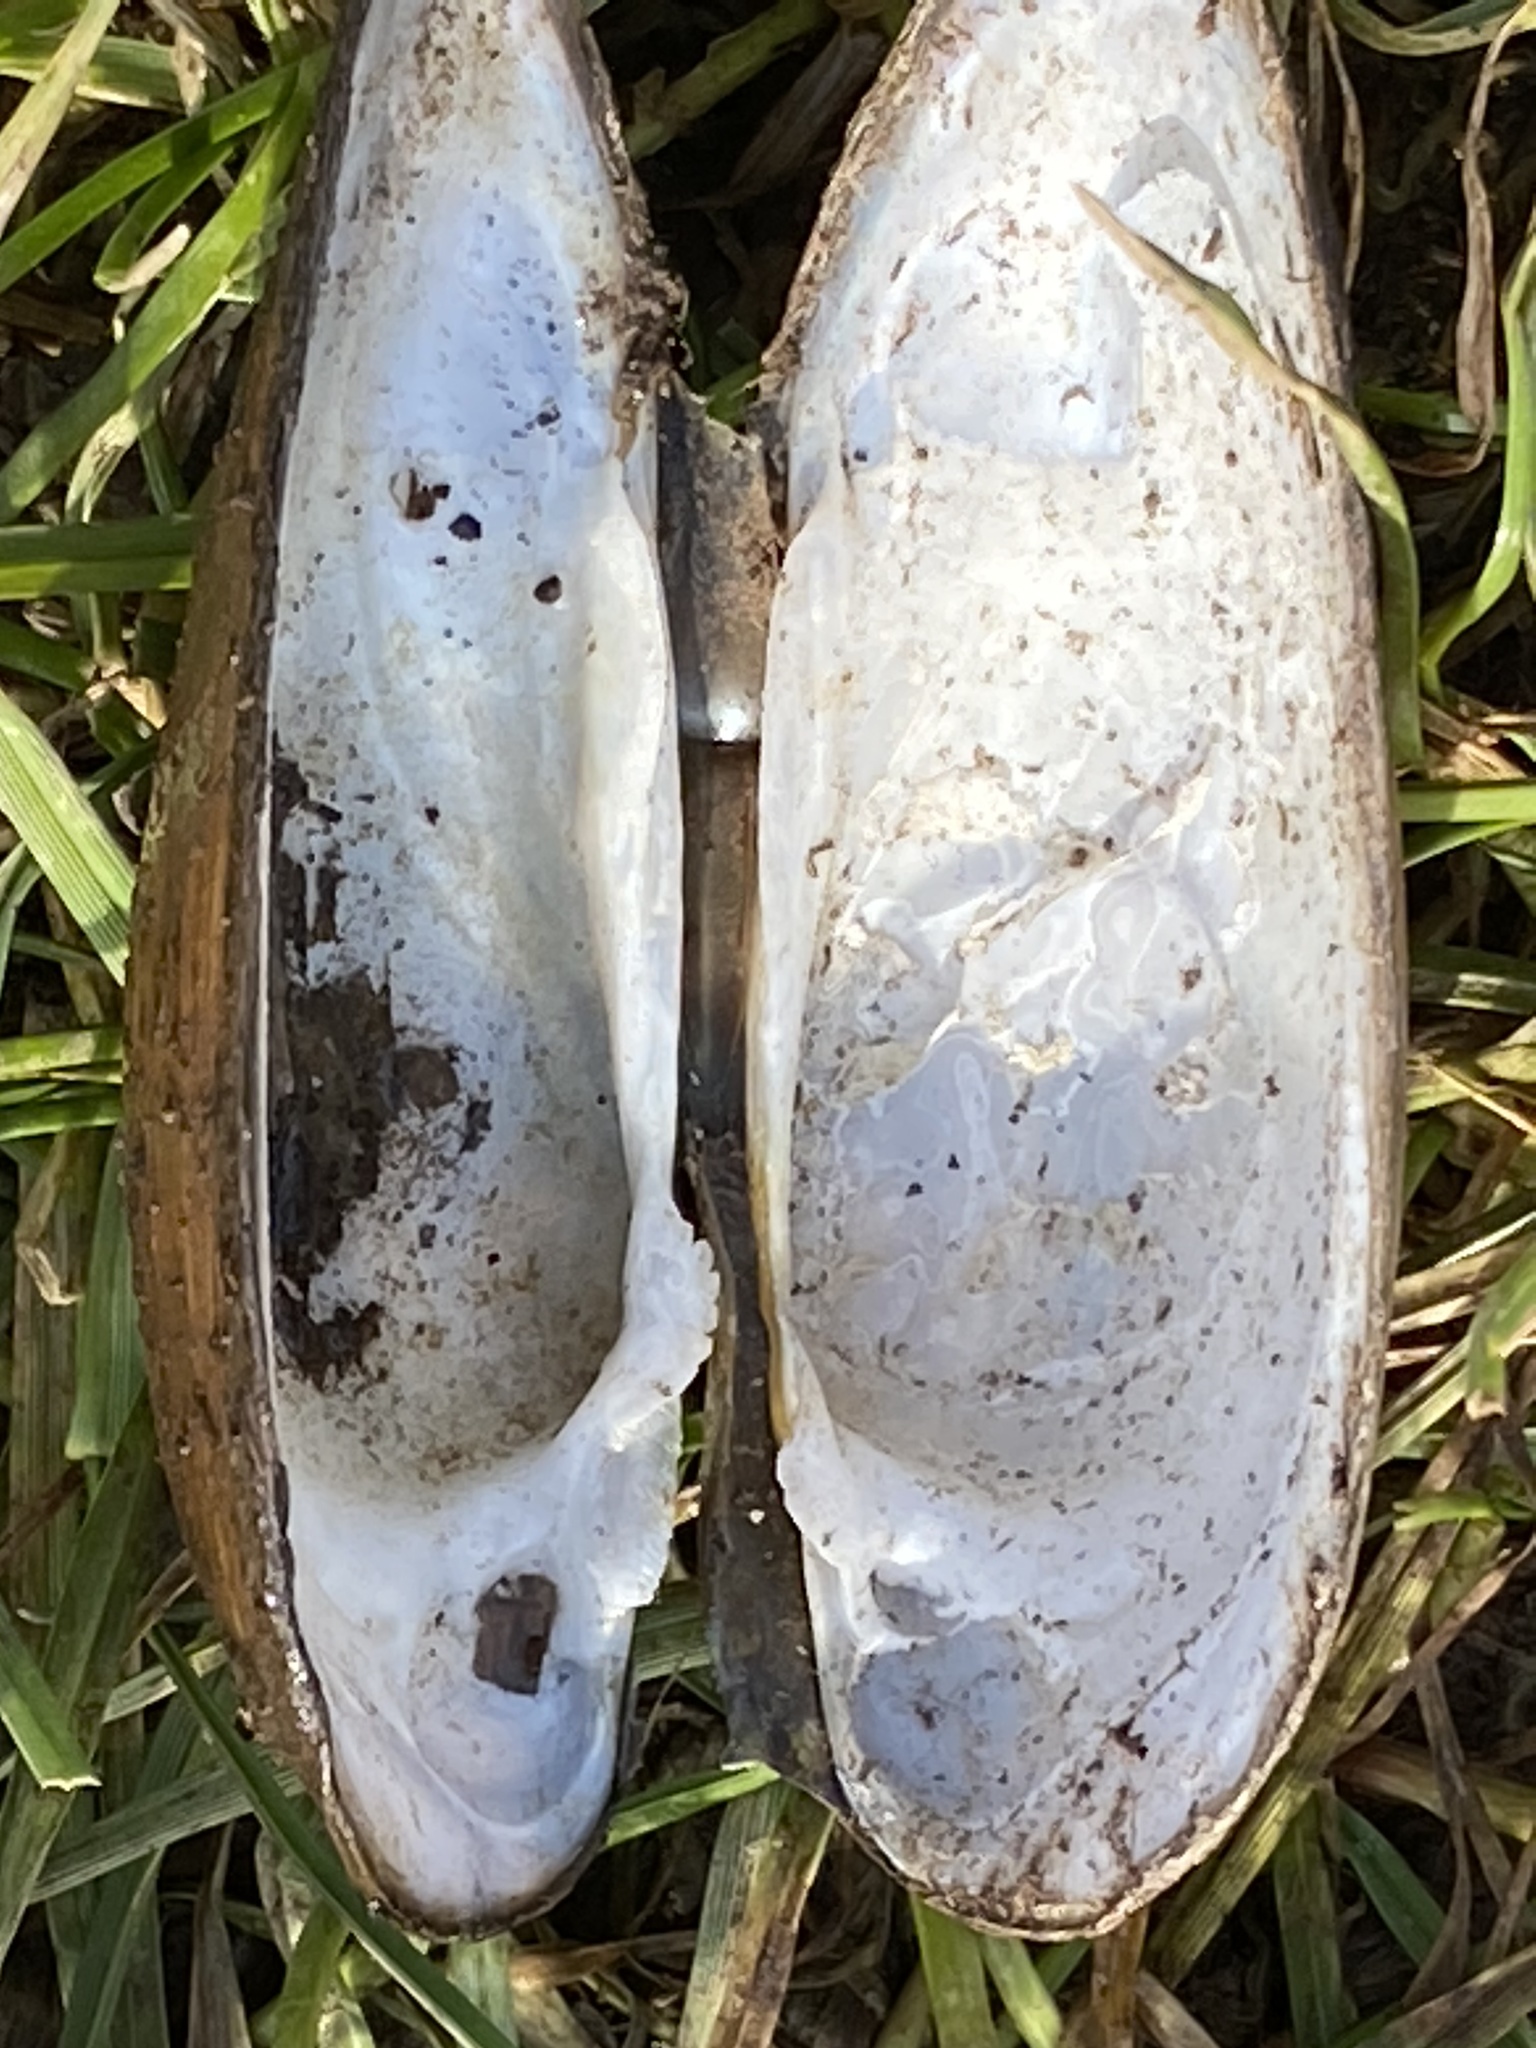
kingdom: Animalia
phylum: Mollusca
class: Bivalvia
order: Unionida
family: Unionidae
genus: Unio
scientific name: Unio tumidus
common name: Swollen river mussel
